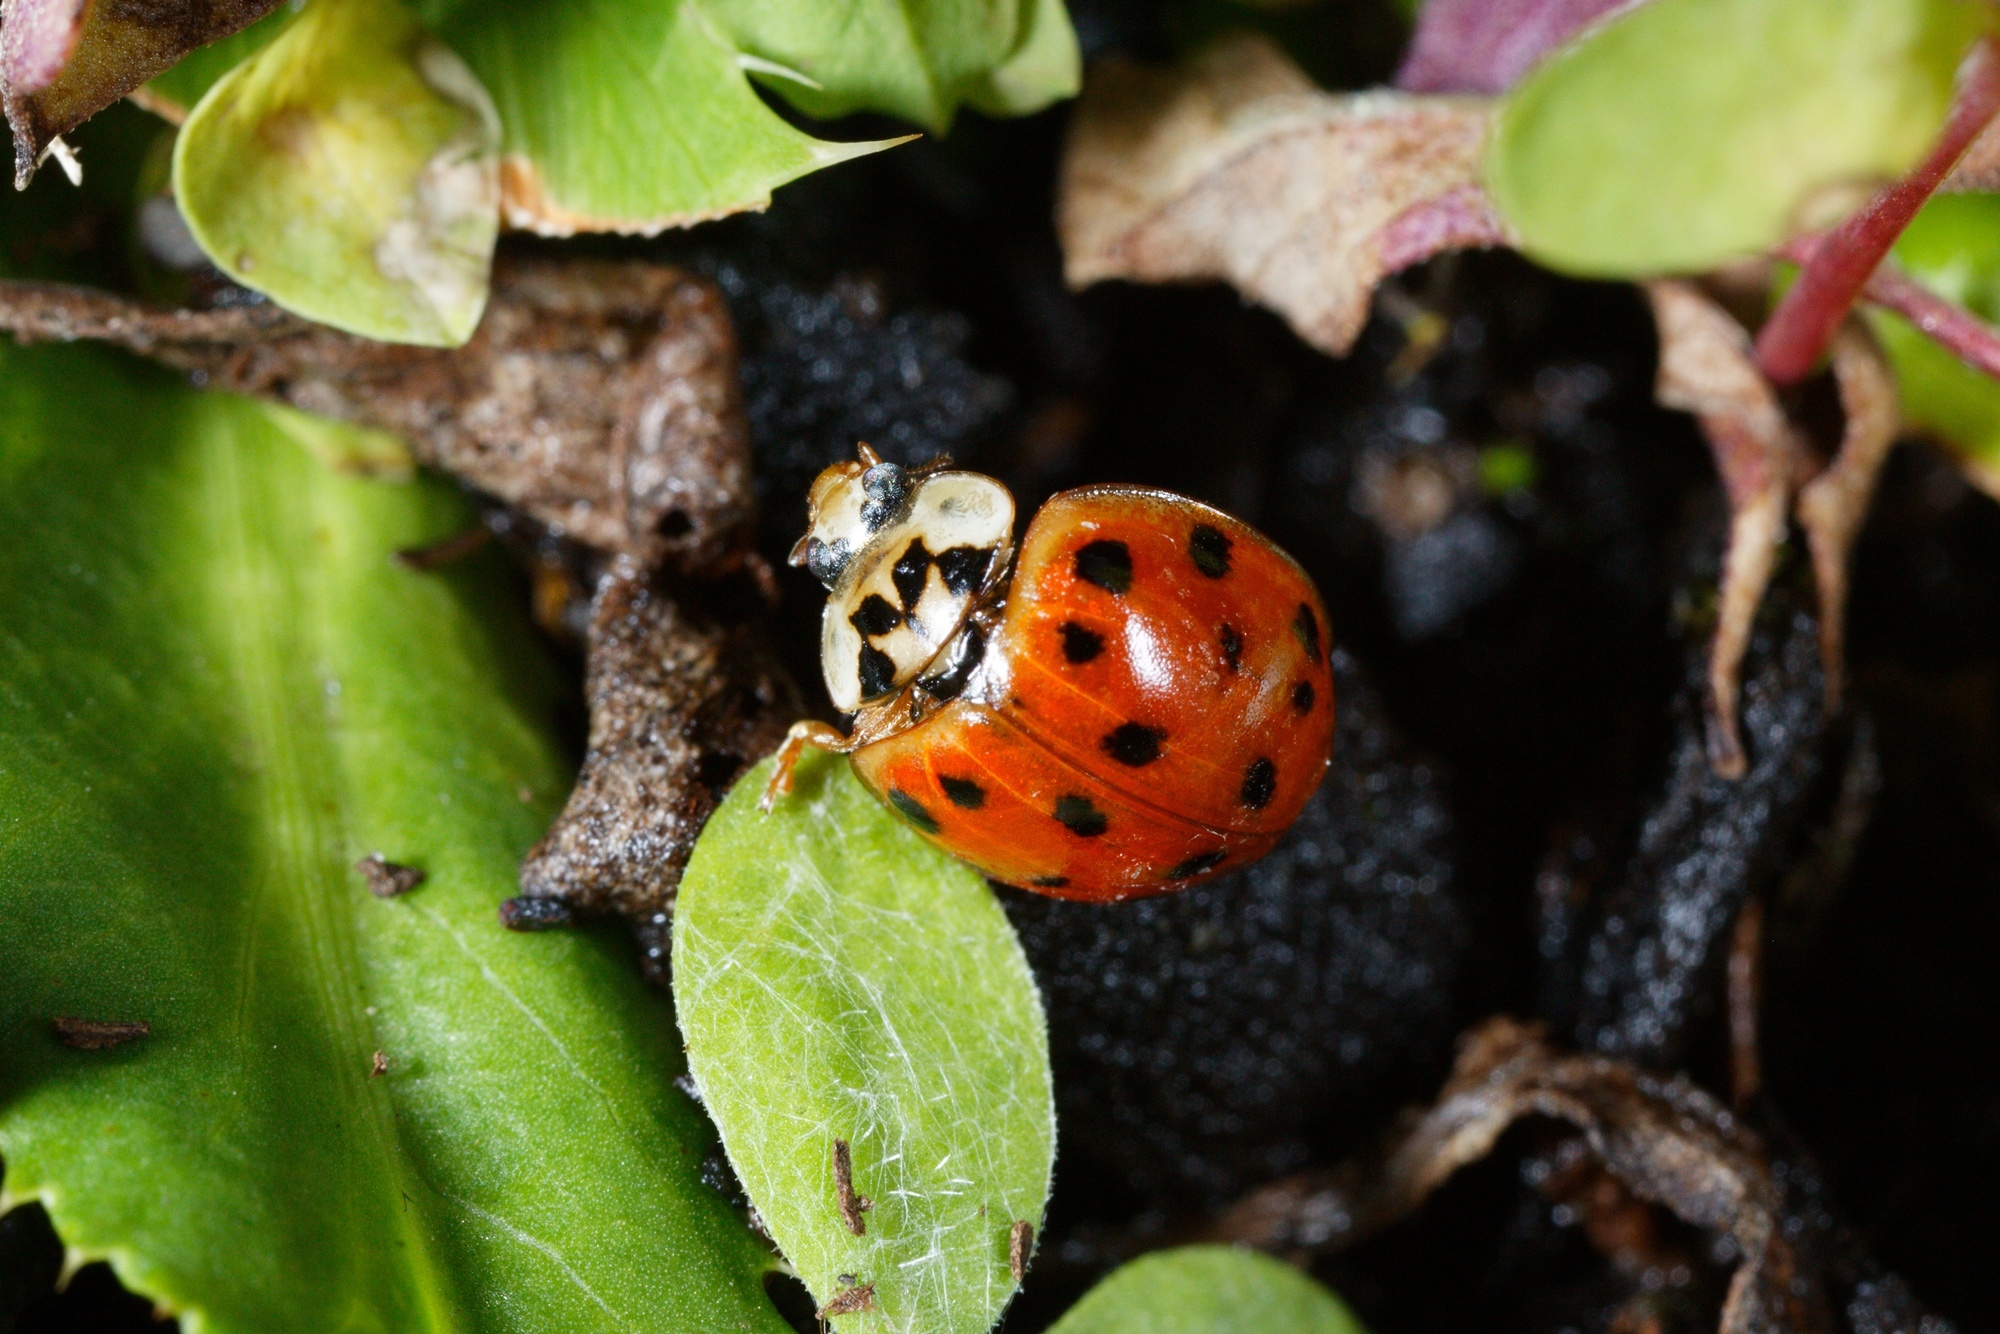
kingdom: Animalia
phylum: Arthropoda
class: Insecta
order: Coleoptera
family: Coccinellidae
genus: Harmonia
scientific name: Harmonia axyridis
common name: Harlequin ladybird
